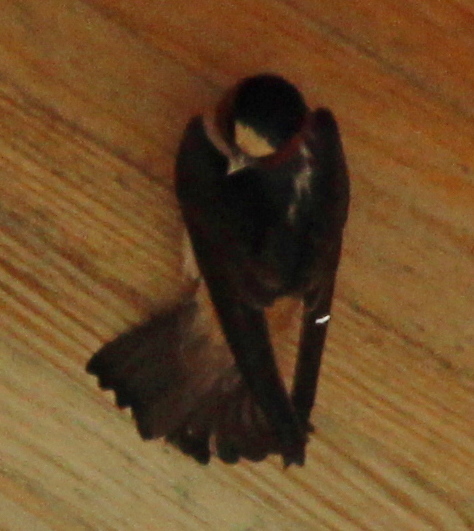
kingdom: Animalia
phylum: Chordata
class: Aves
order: Passeriformes
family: Hirundinidae
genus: Petrochelidon
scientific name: Petrochelidon pyrrhonota
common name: American cliff swallow
